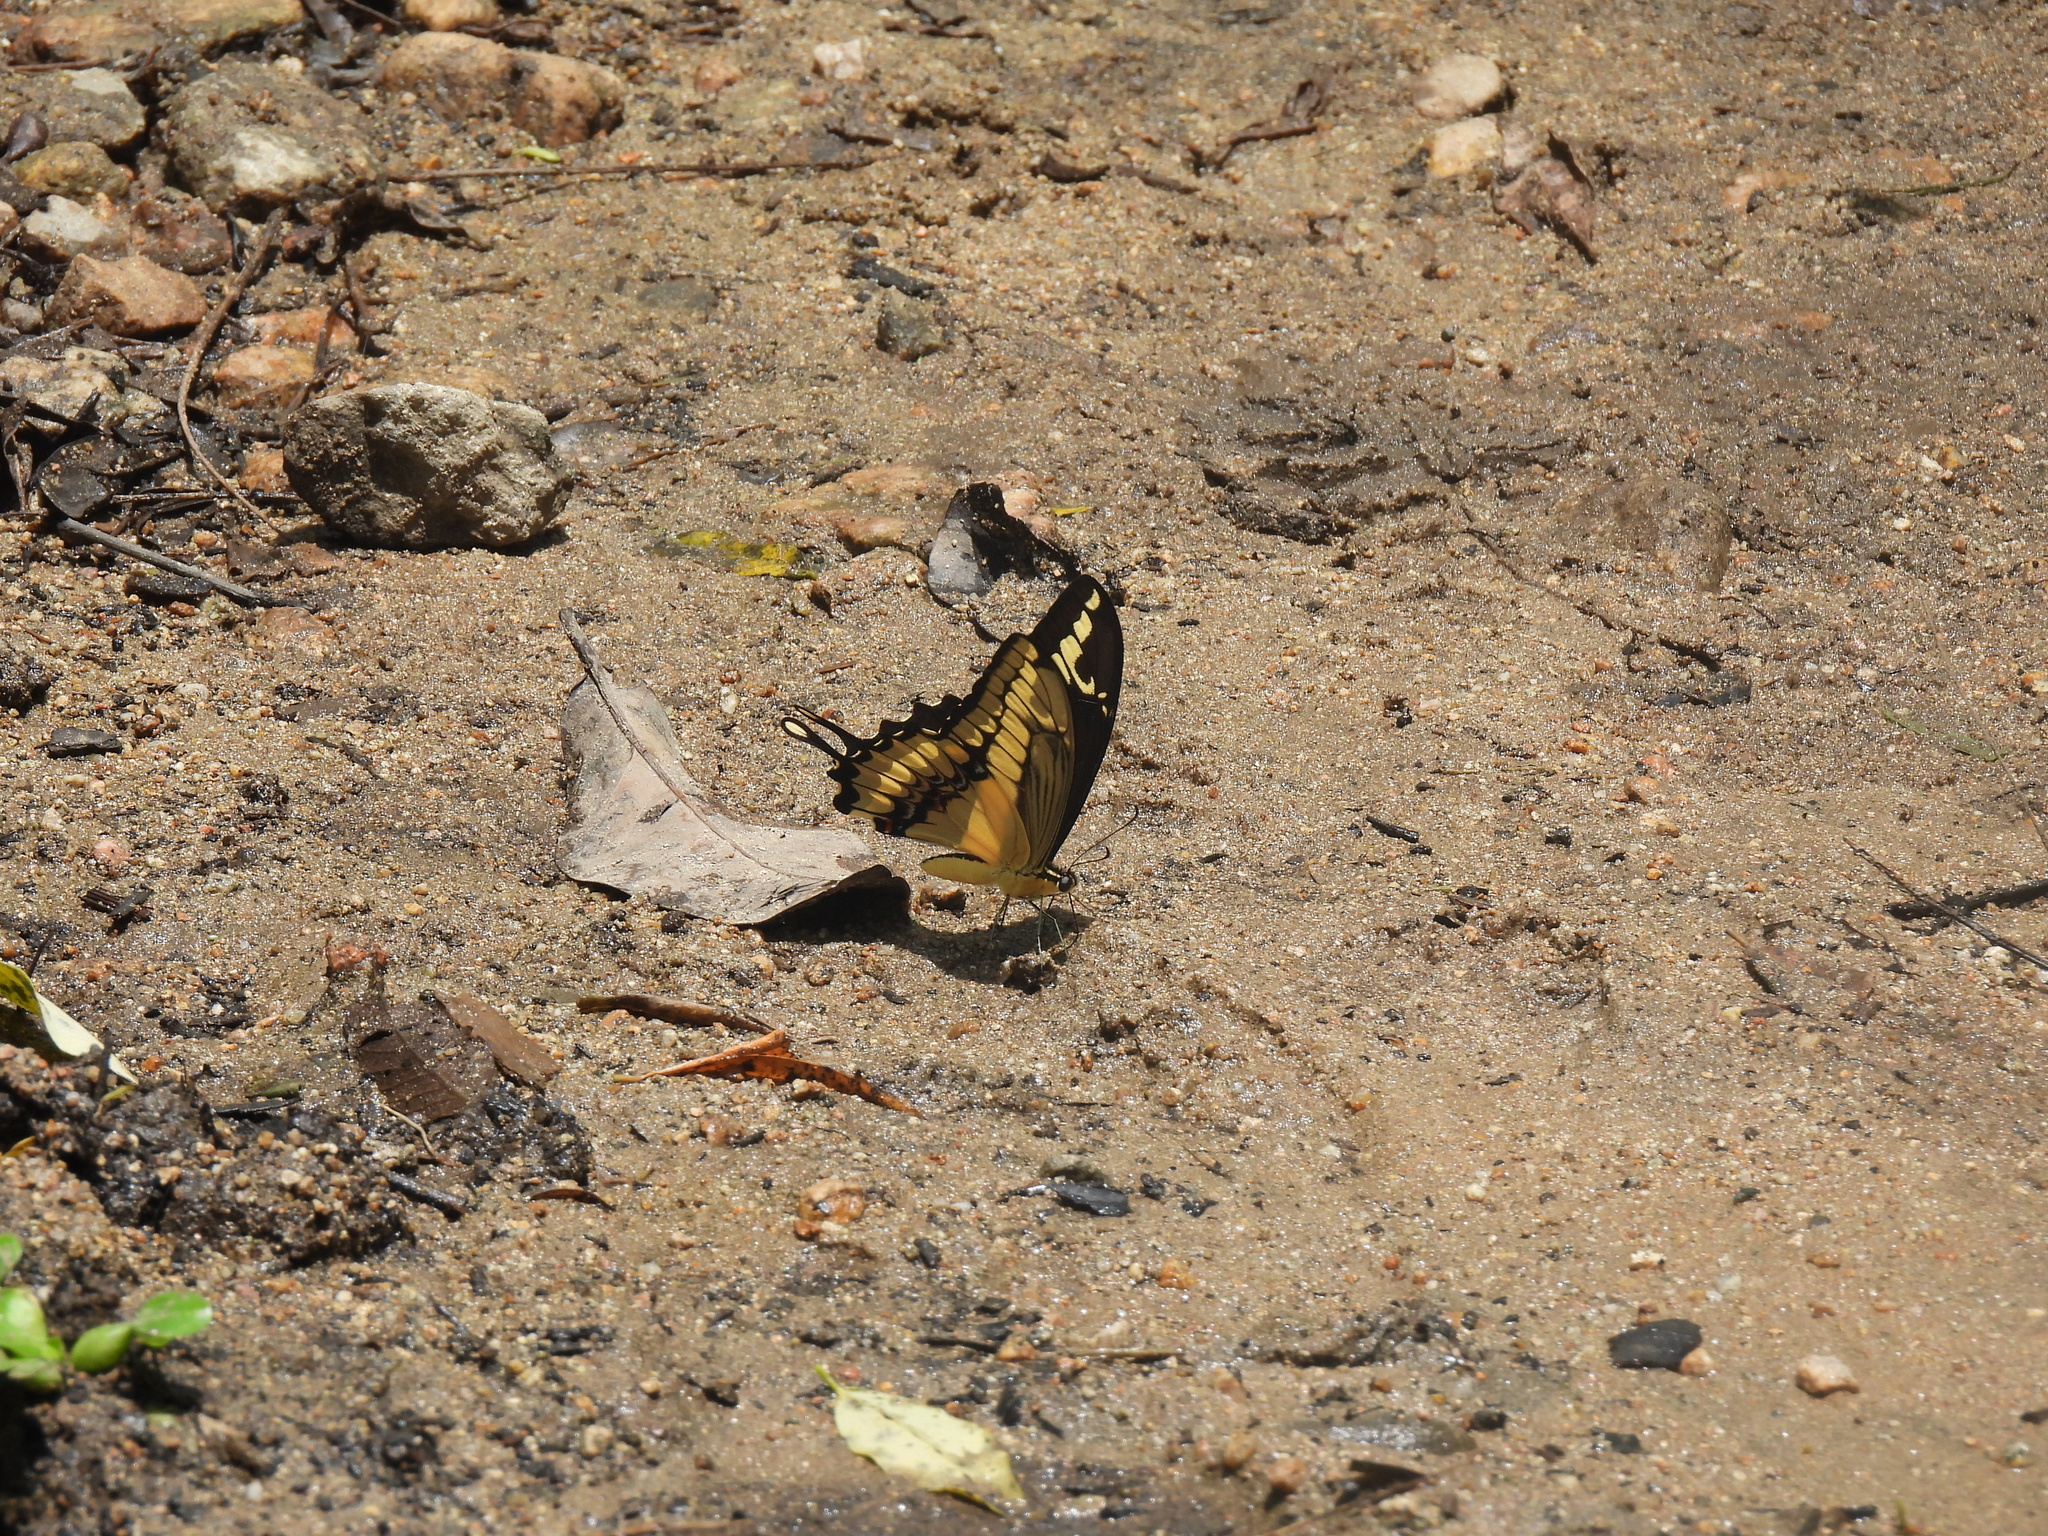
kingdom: Animalia
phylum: Arthropoda
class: Insecta
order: Lepidoptera
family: Papilionidae
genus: Papilio
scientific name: Papilio thoas
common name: King swallowtail
